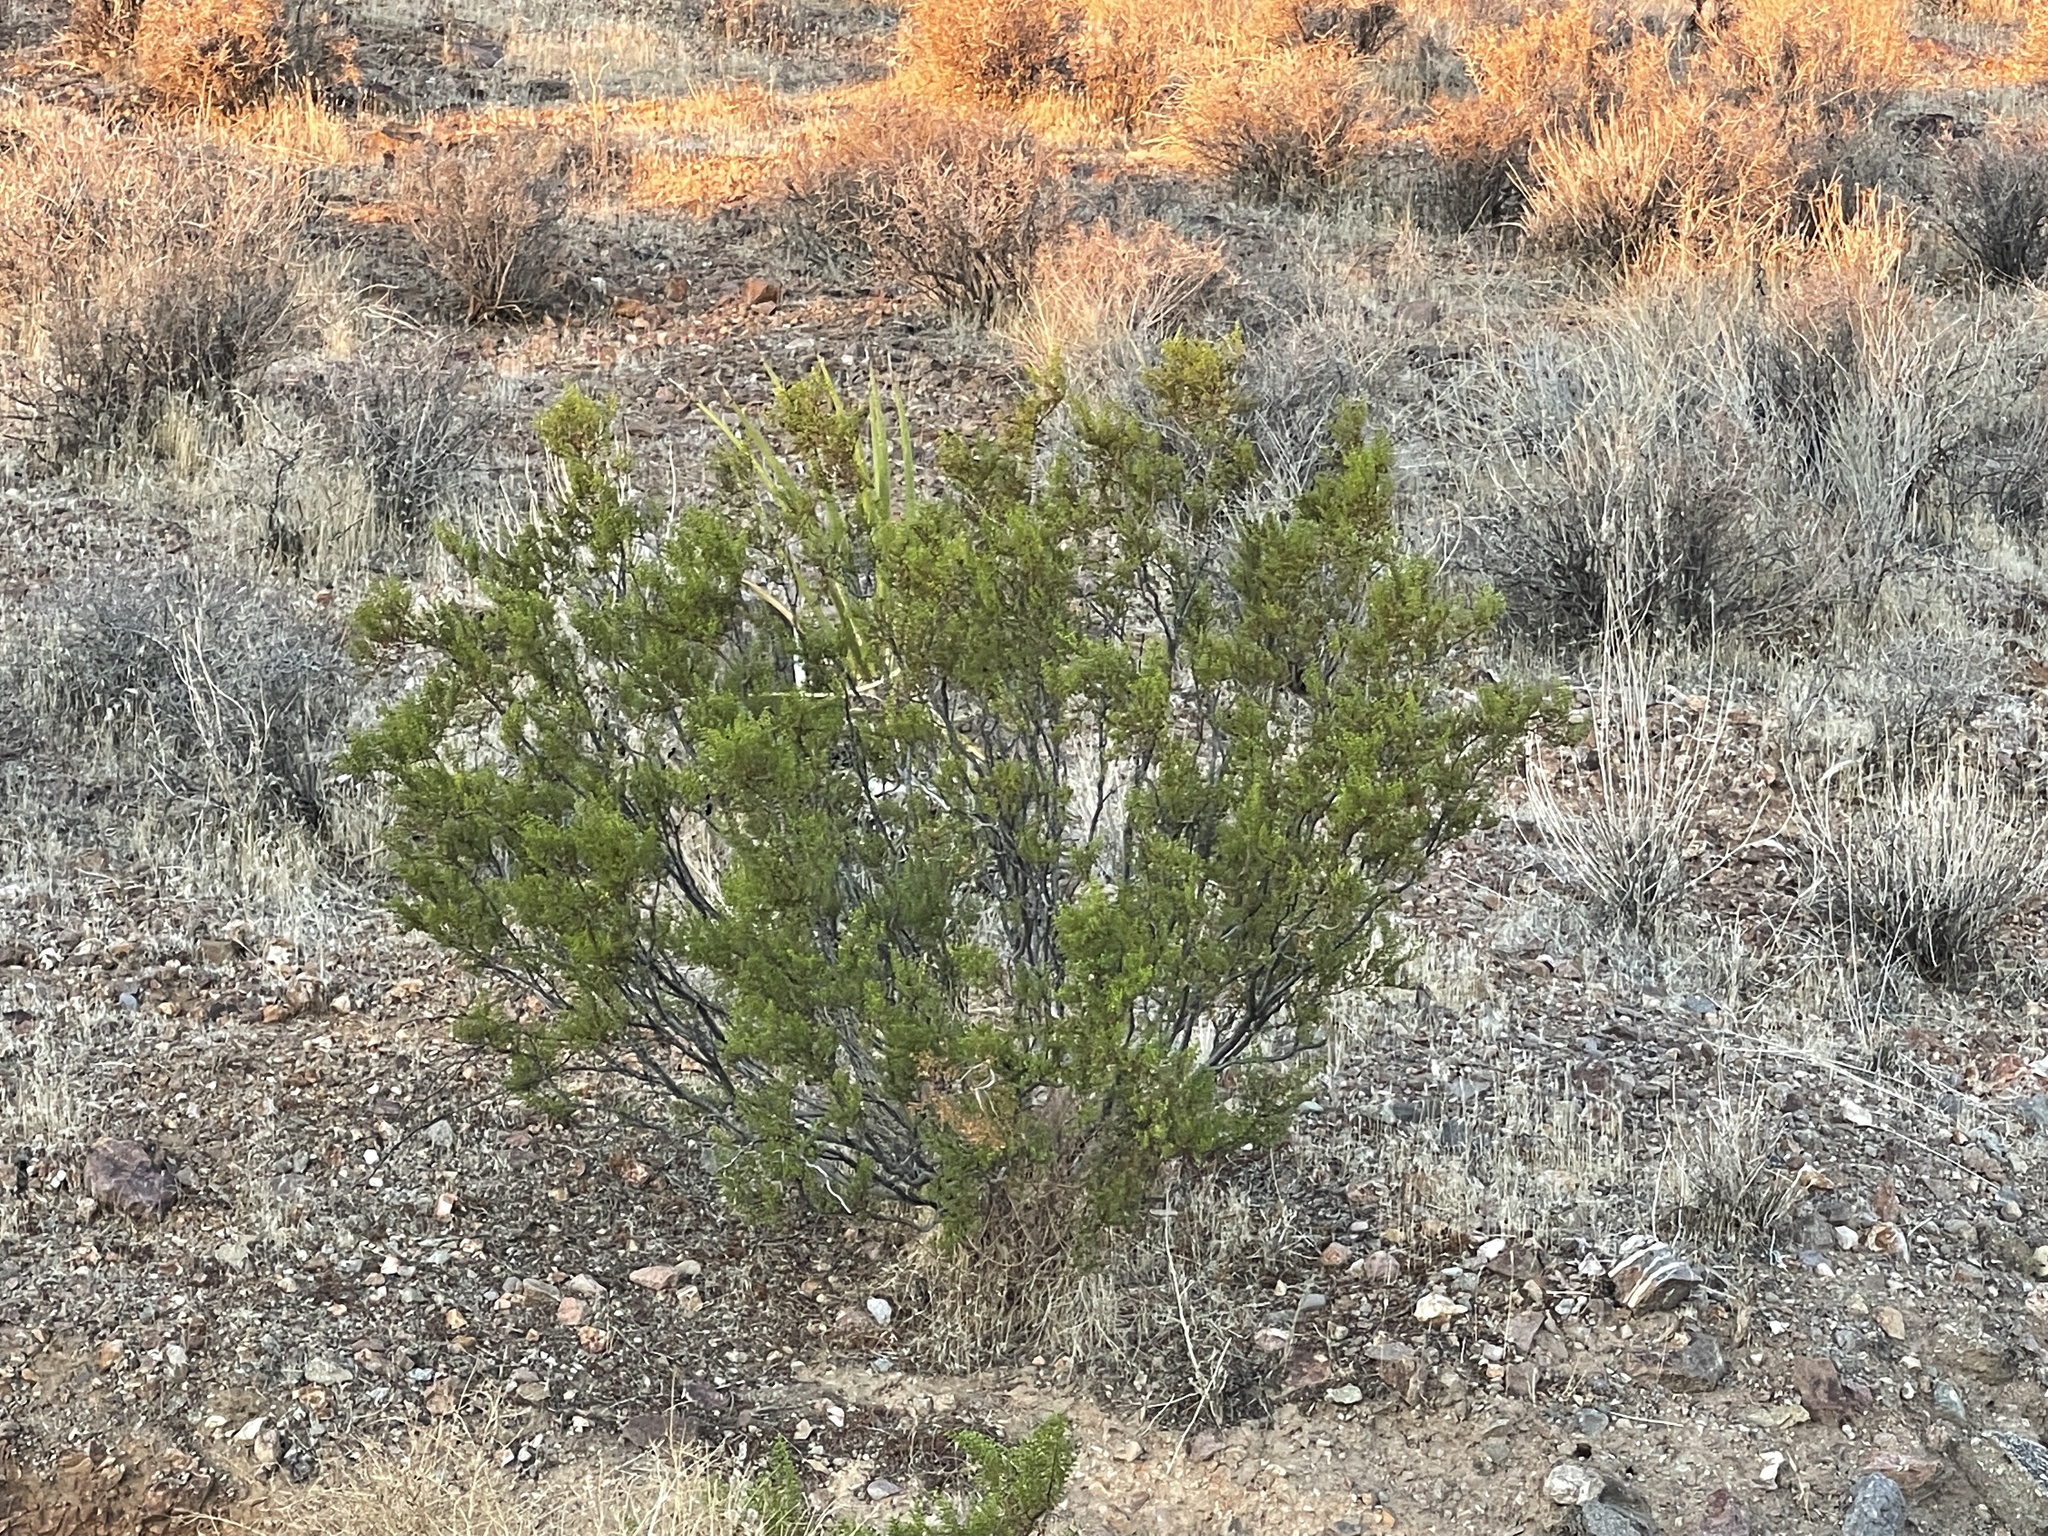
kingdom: Plantae
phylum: Tracheophyta
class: Magnoliopsida
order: Zygophyllales
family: Zygophyllaceae
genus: Larrea
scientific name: Larrea tridentata
